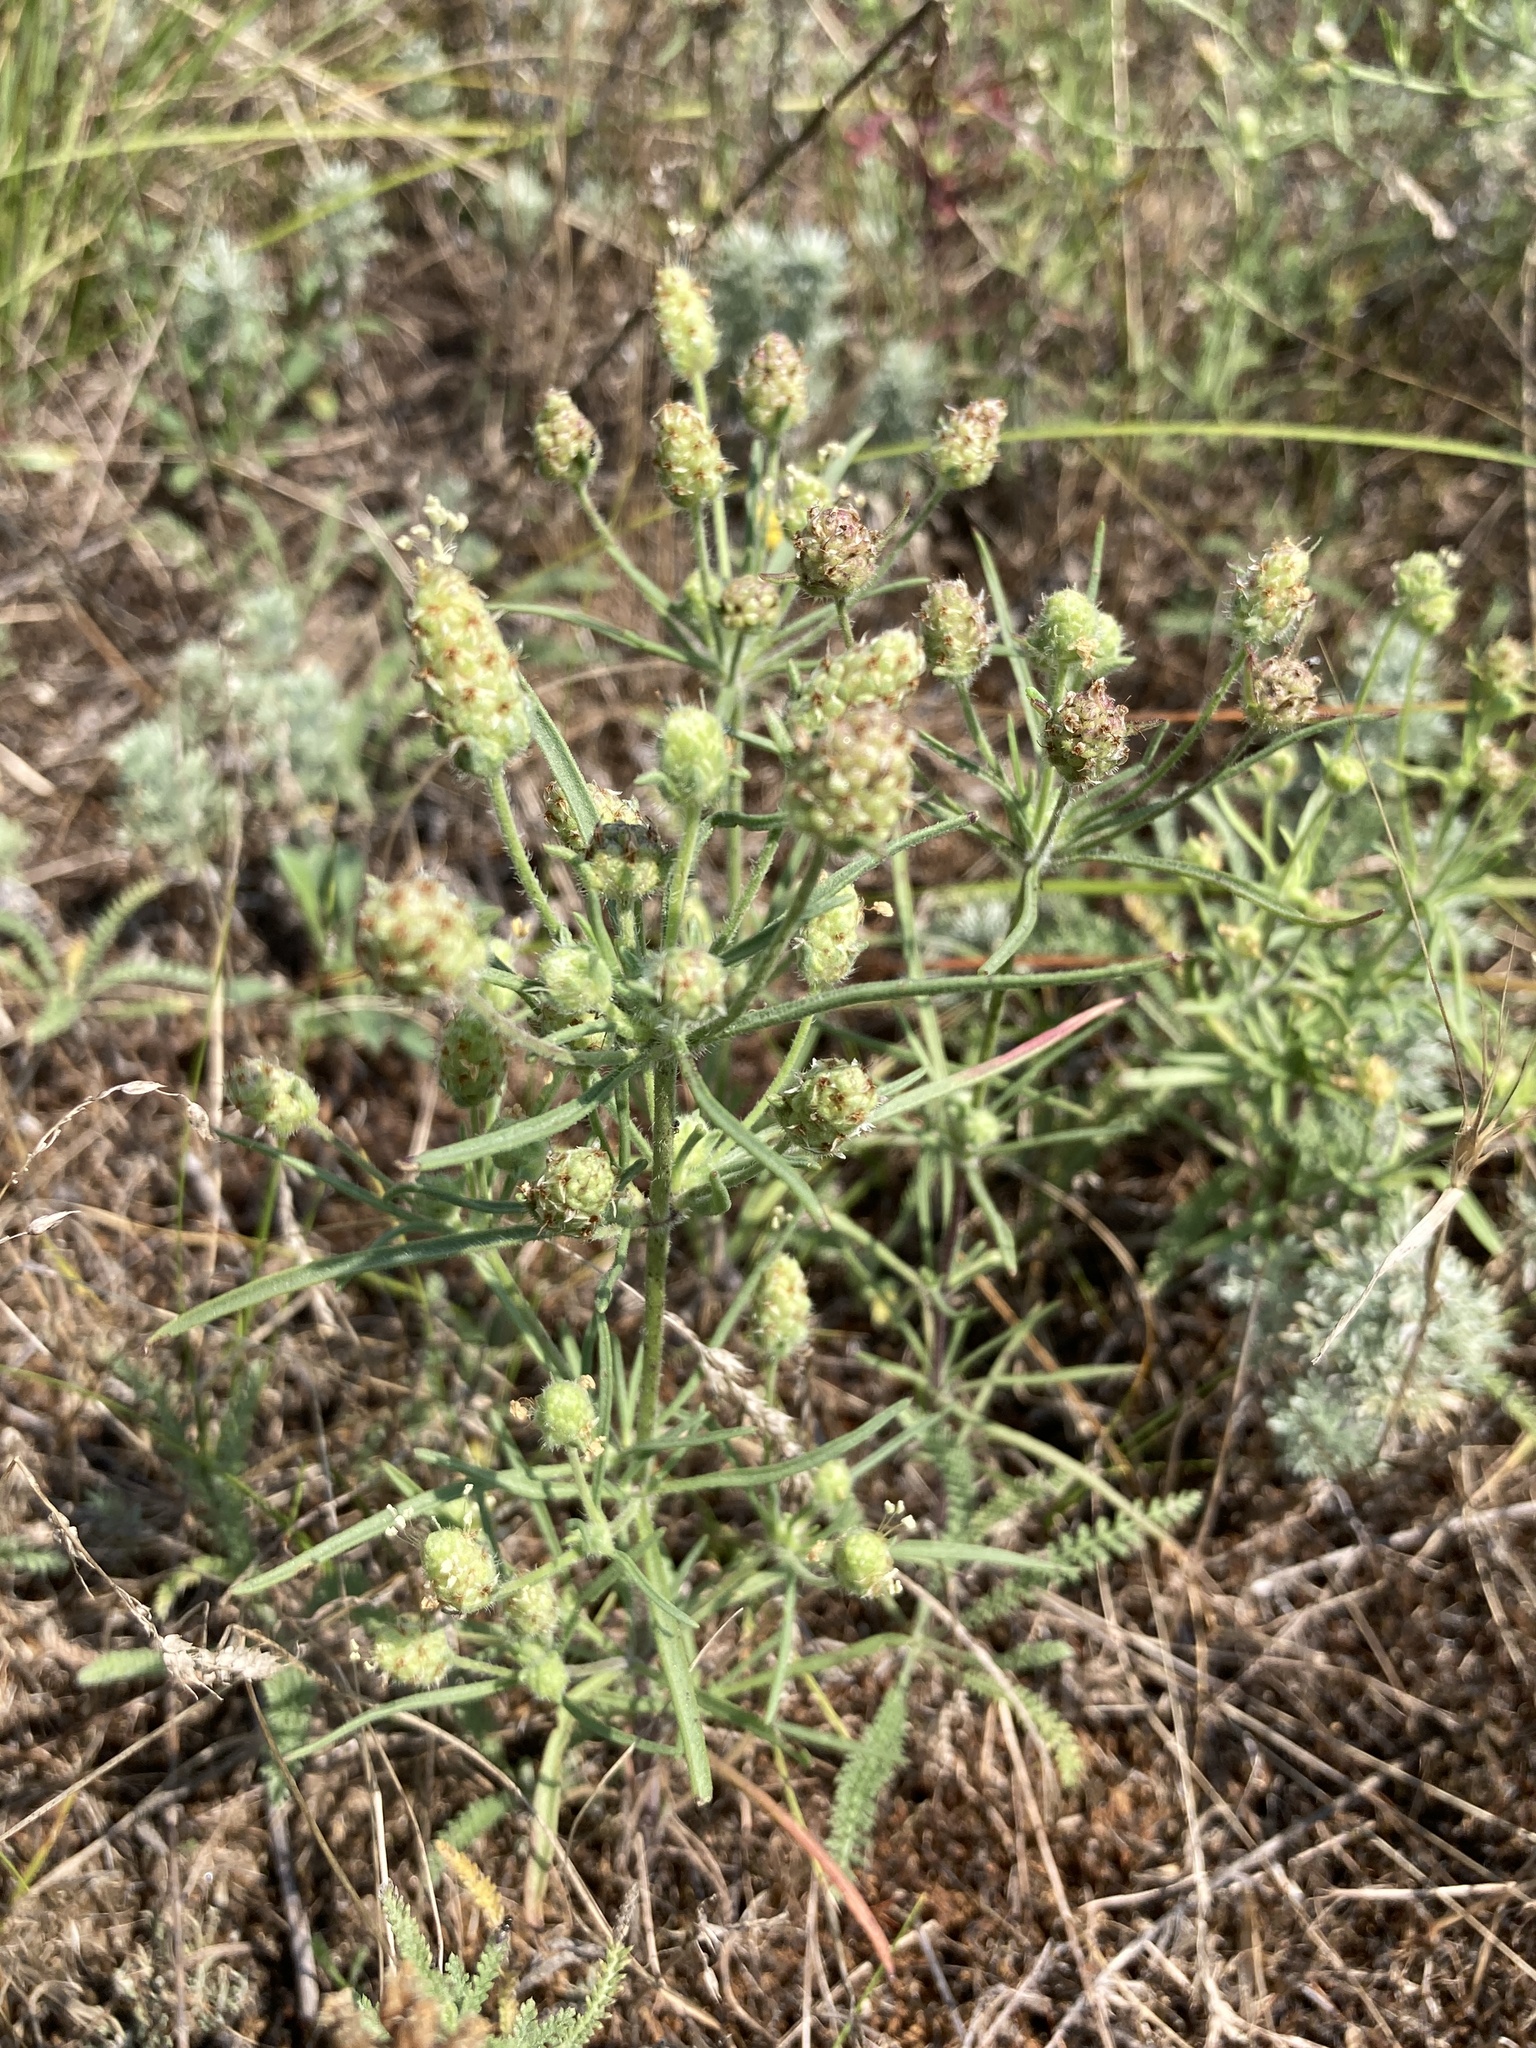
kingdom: Plantae
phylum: Tracheophyta
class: Magnoliopsida
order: Lamiales
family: Plantaginaceae
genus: Plantago
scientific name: Plantago arenaria
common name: Branched plantain
